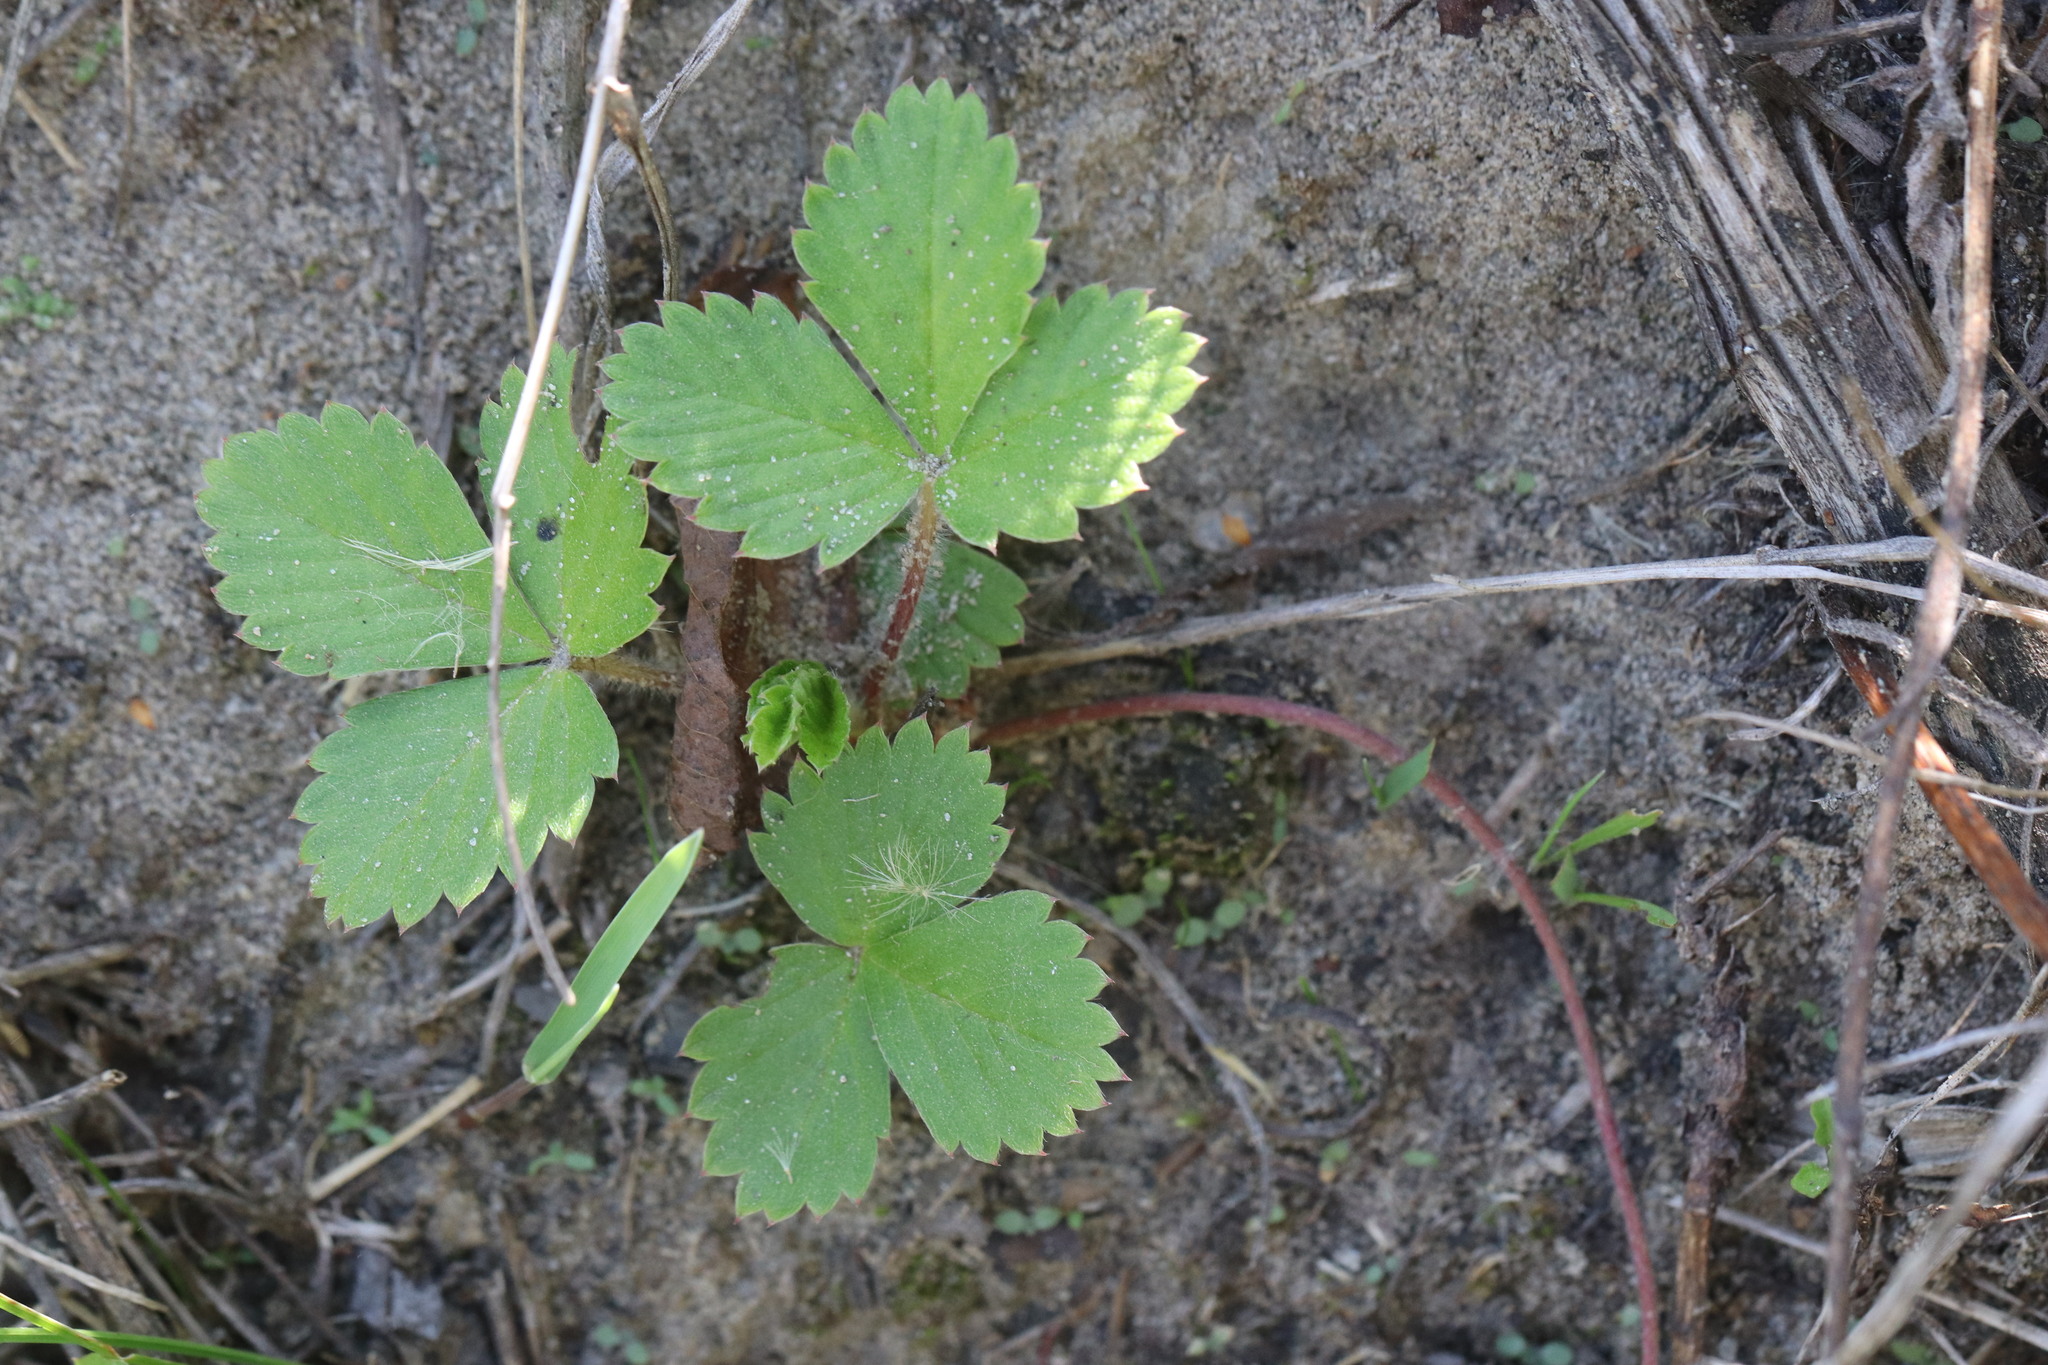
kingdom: Plantae
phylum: Tracheophyta
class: Magnoliopsida
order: Rosales
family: Rosaceae
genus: Fragaria
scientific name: Fragaria vesca
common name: Wild strawberry
